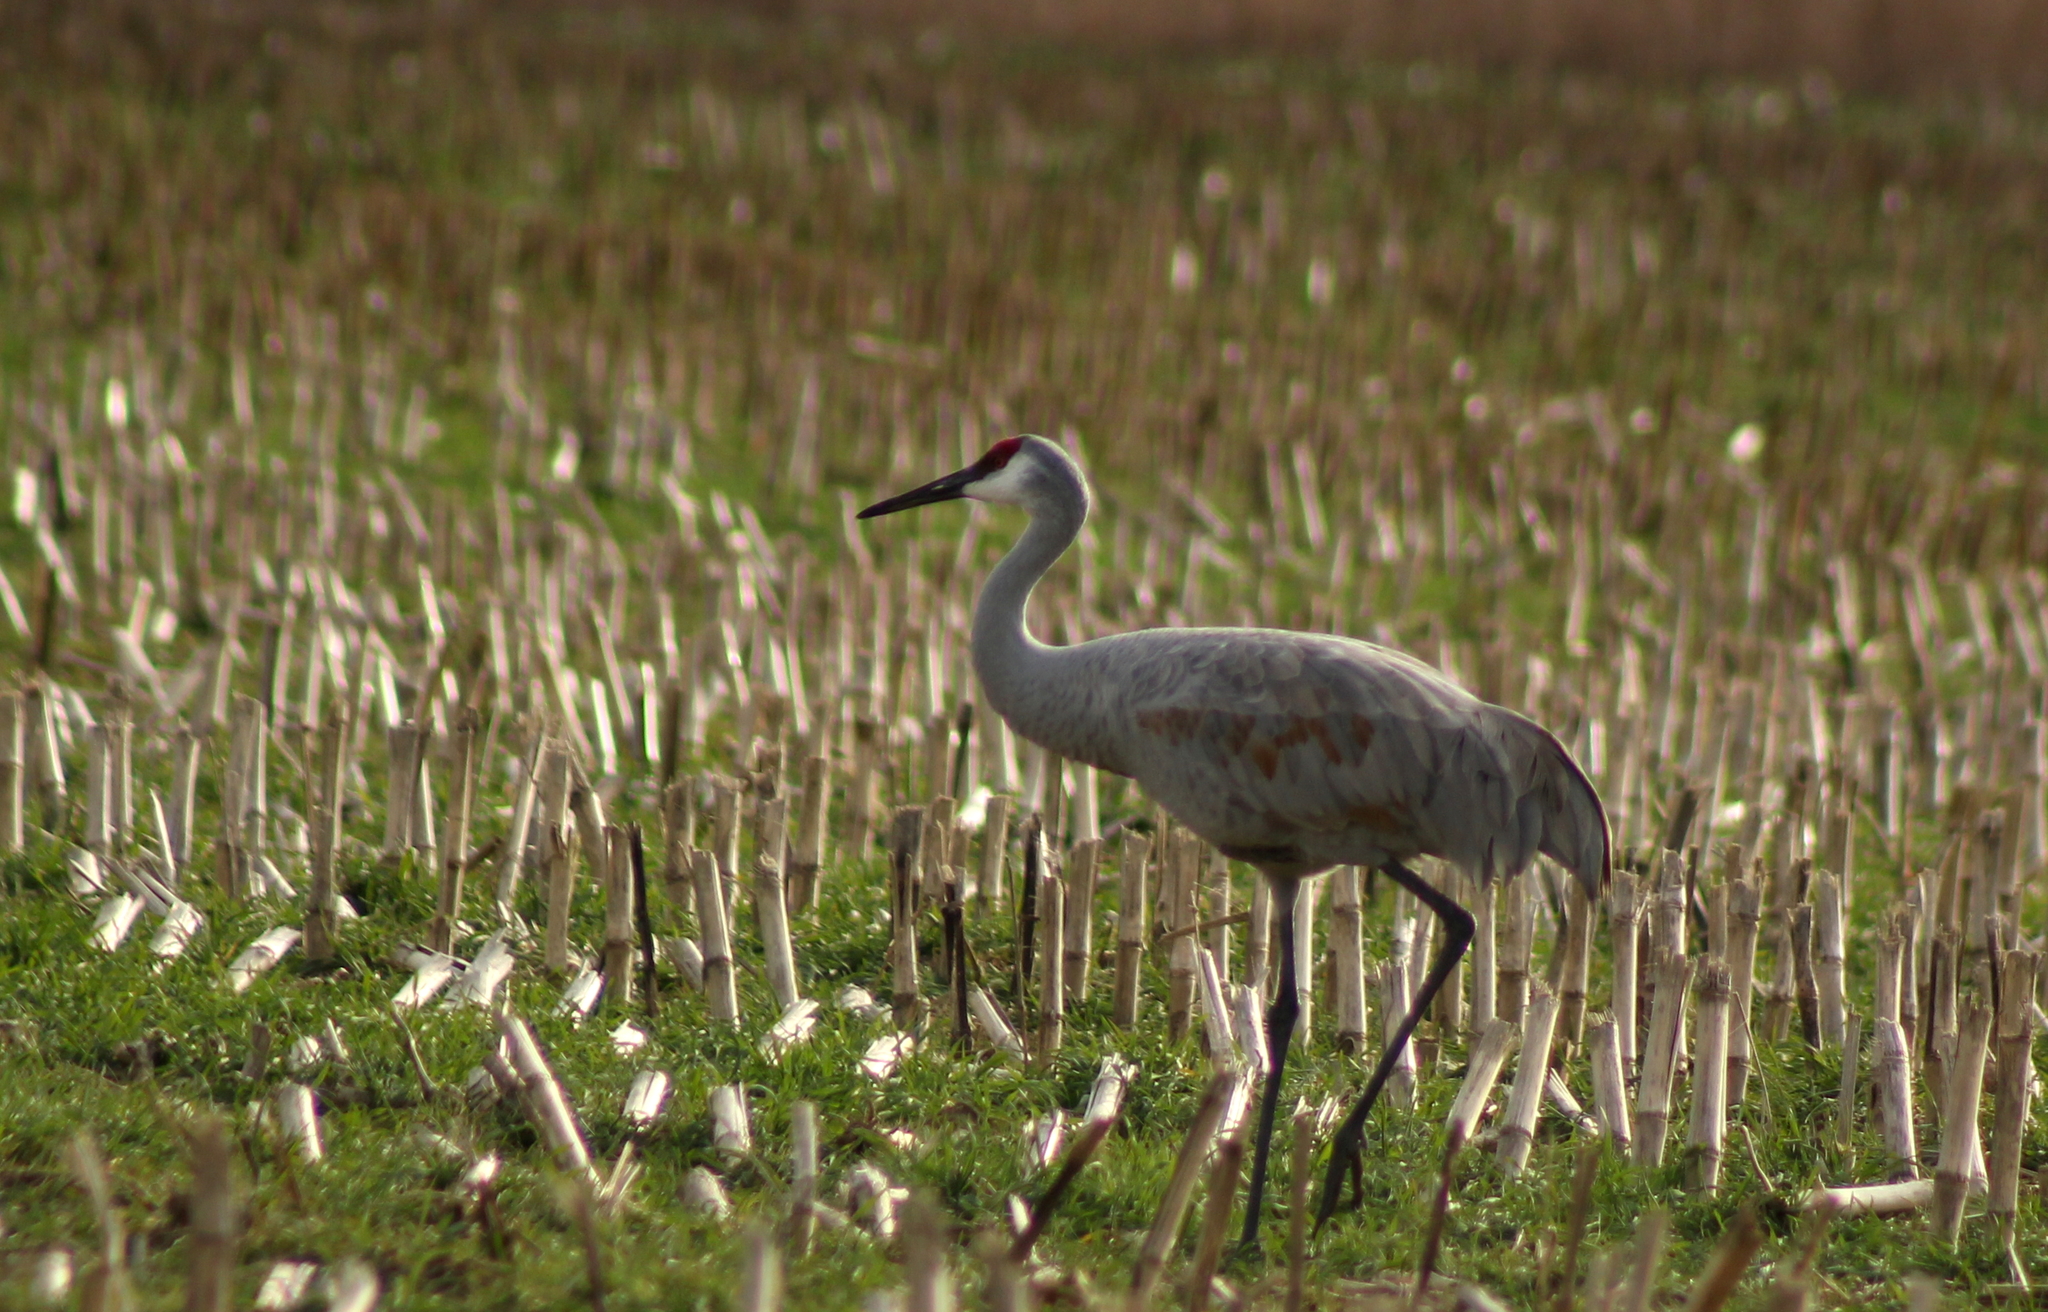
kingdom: Animalia
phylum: Chordata
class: Aves
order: Gruiformes
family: Gruidae
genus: Grus
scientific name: Grus canadensis
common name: Sandhill crane
